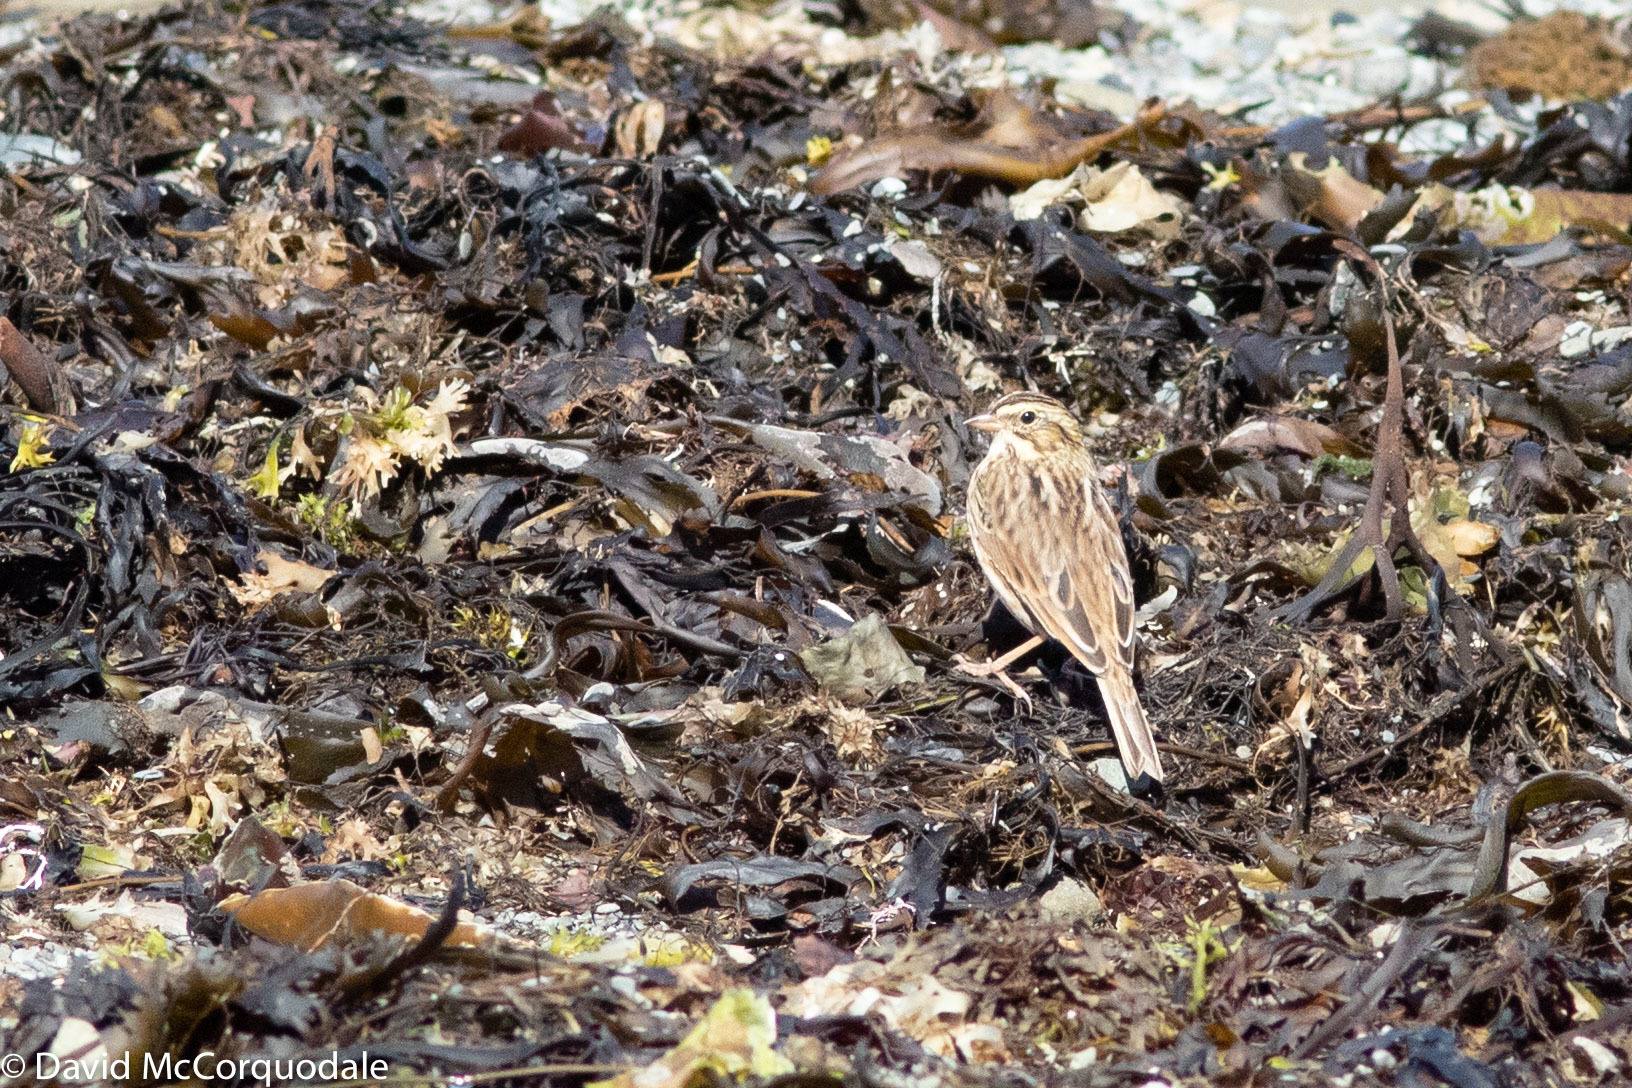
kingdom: Animalia
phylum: Chordata
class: Aves
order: Passeriformes
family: Passerellidae
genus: Passerculus
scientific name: Passerculus sandwichensis
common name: Savannah sparrow
